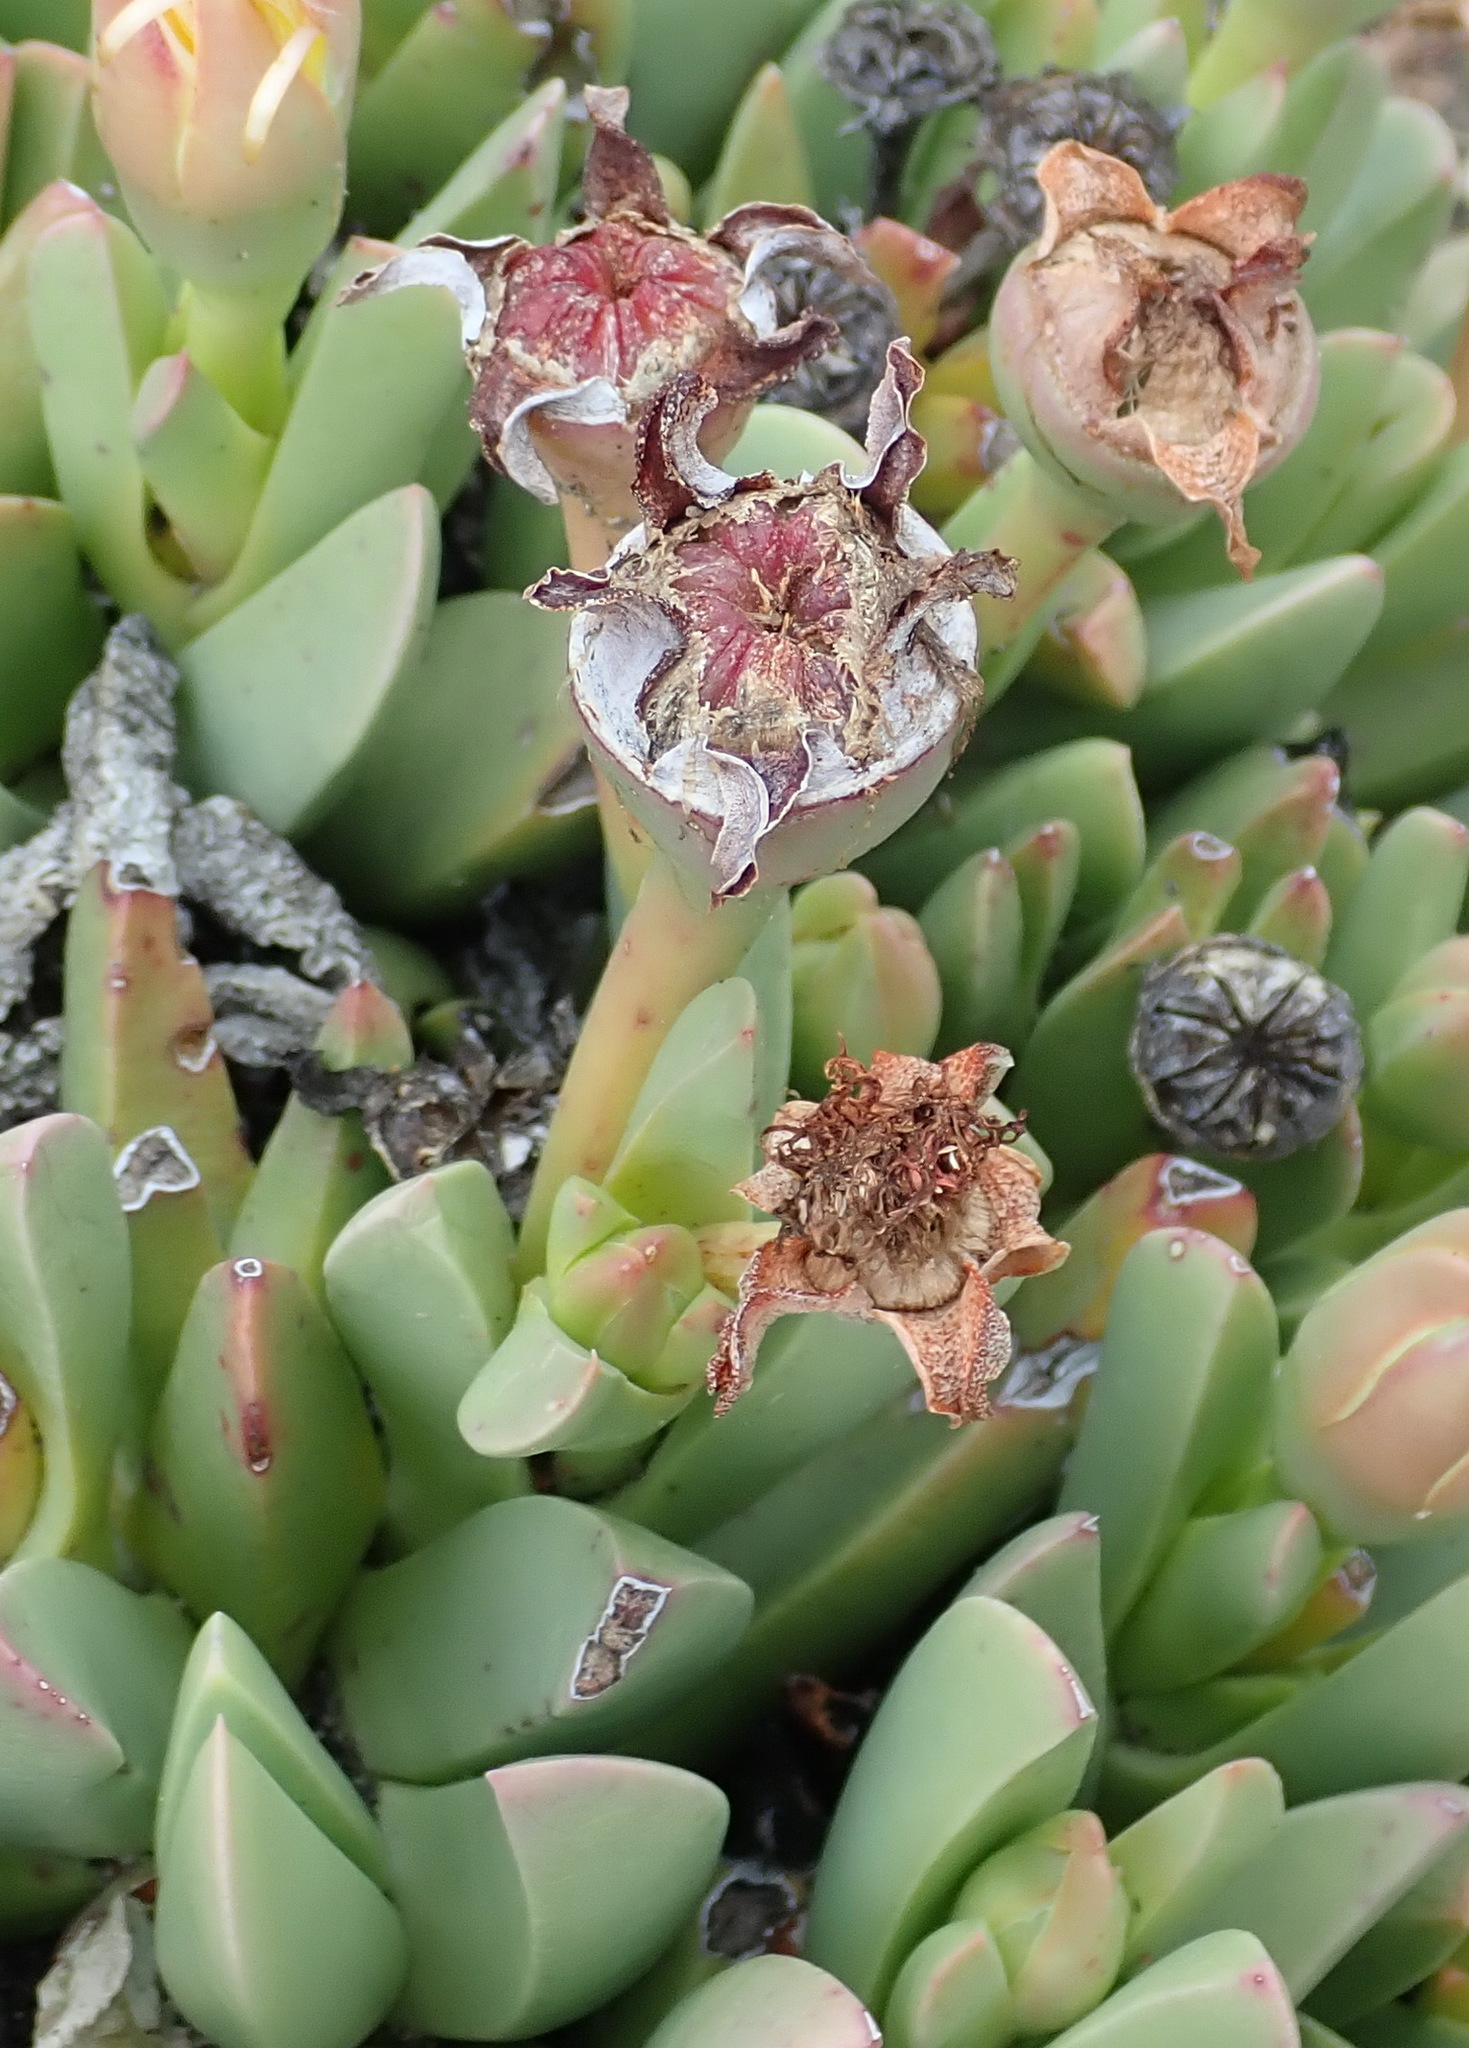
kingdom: Plantae
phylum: Tracheophyta
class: Magnoliopsida
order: Caryophyllales
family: Aizoaceae
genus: Machairophyllum
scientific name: Machairophyllum albidum
